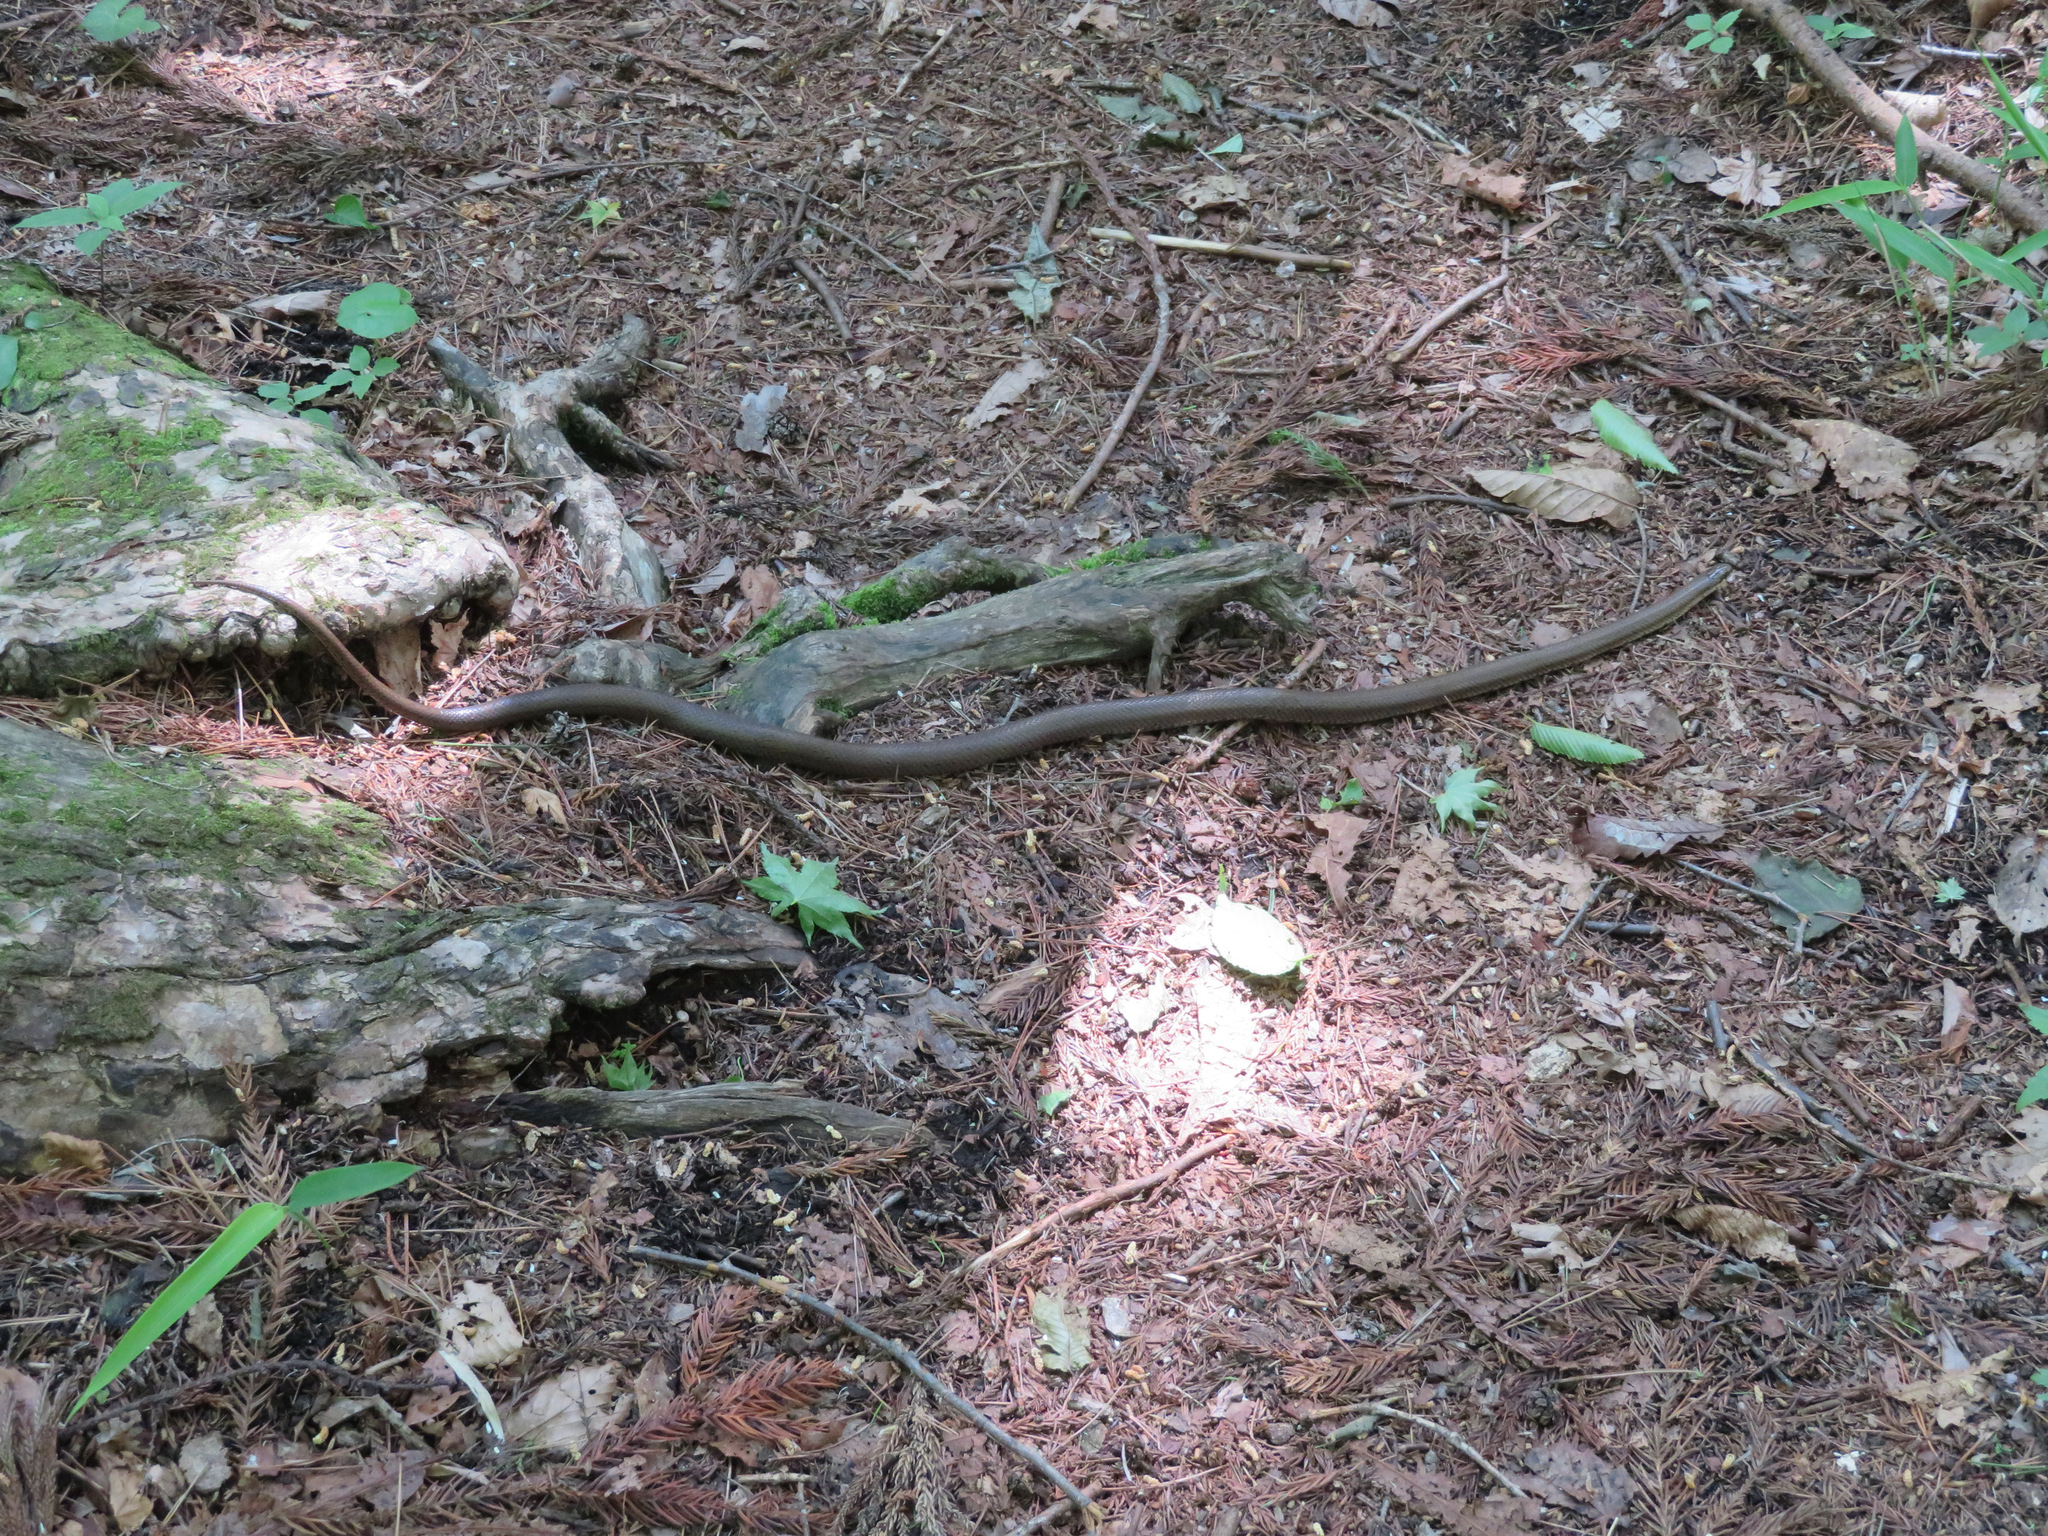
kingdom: Animalia
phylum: Chordata
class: Squamata
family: Colubridae
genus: Euprepiophis
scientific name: Euprepiophis conspicillata
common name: Burrowing ratsnake
